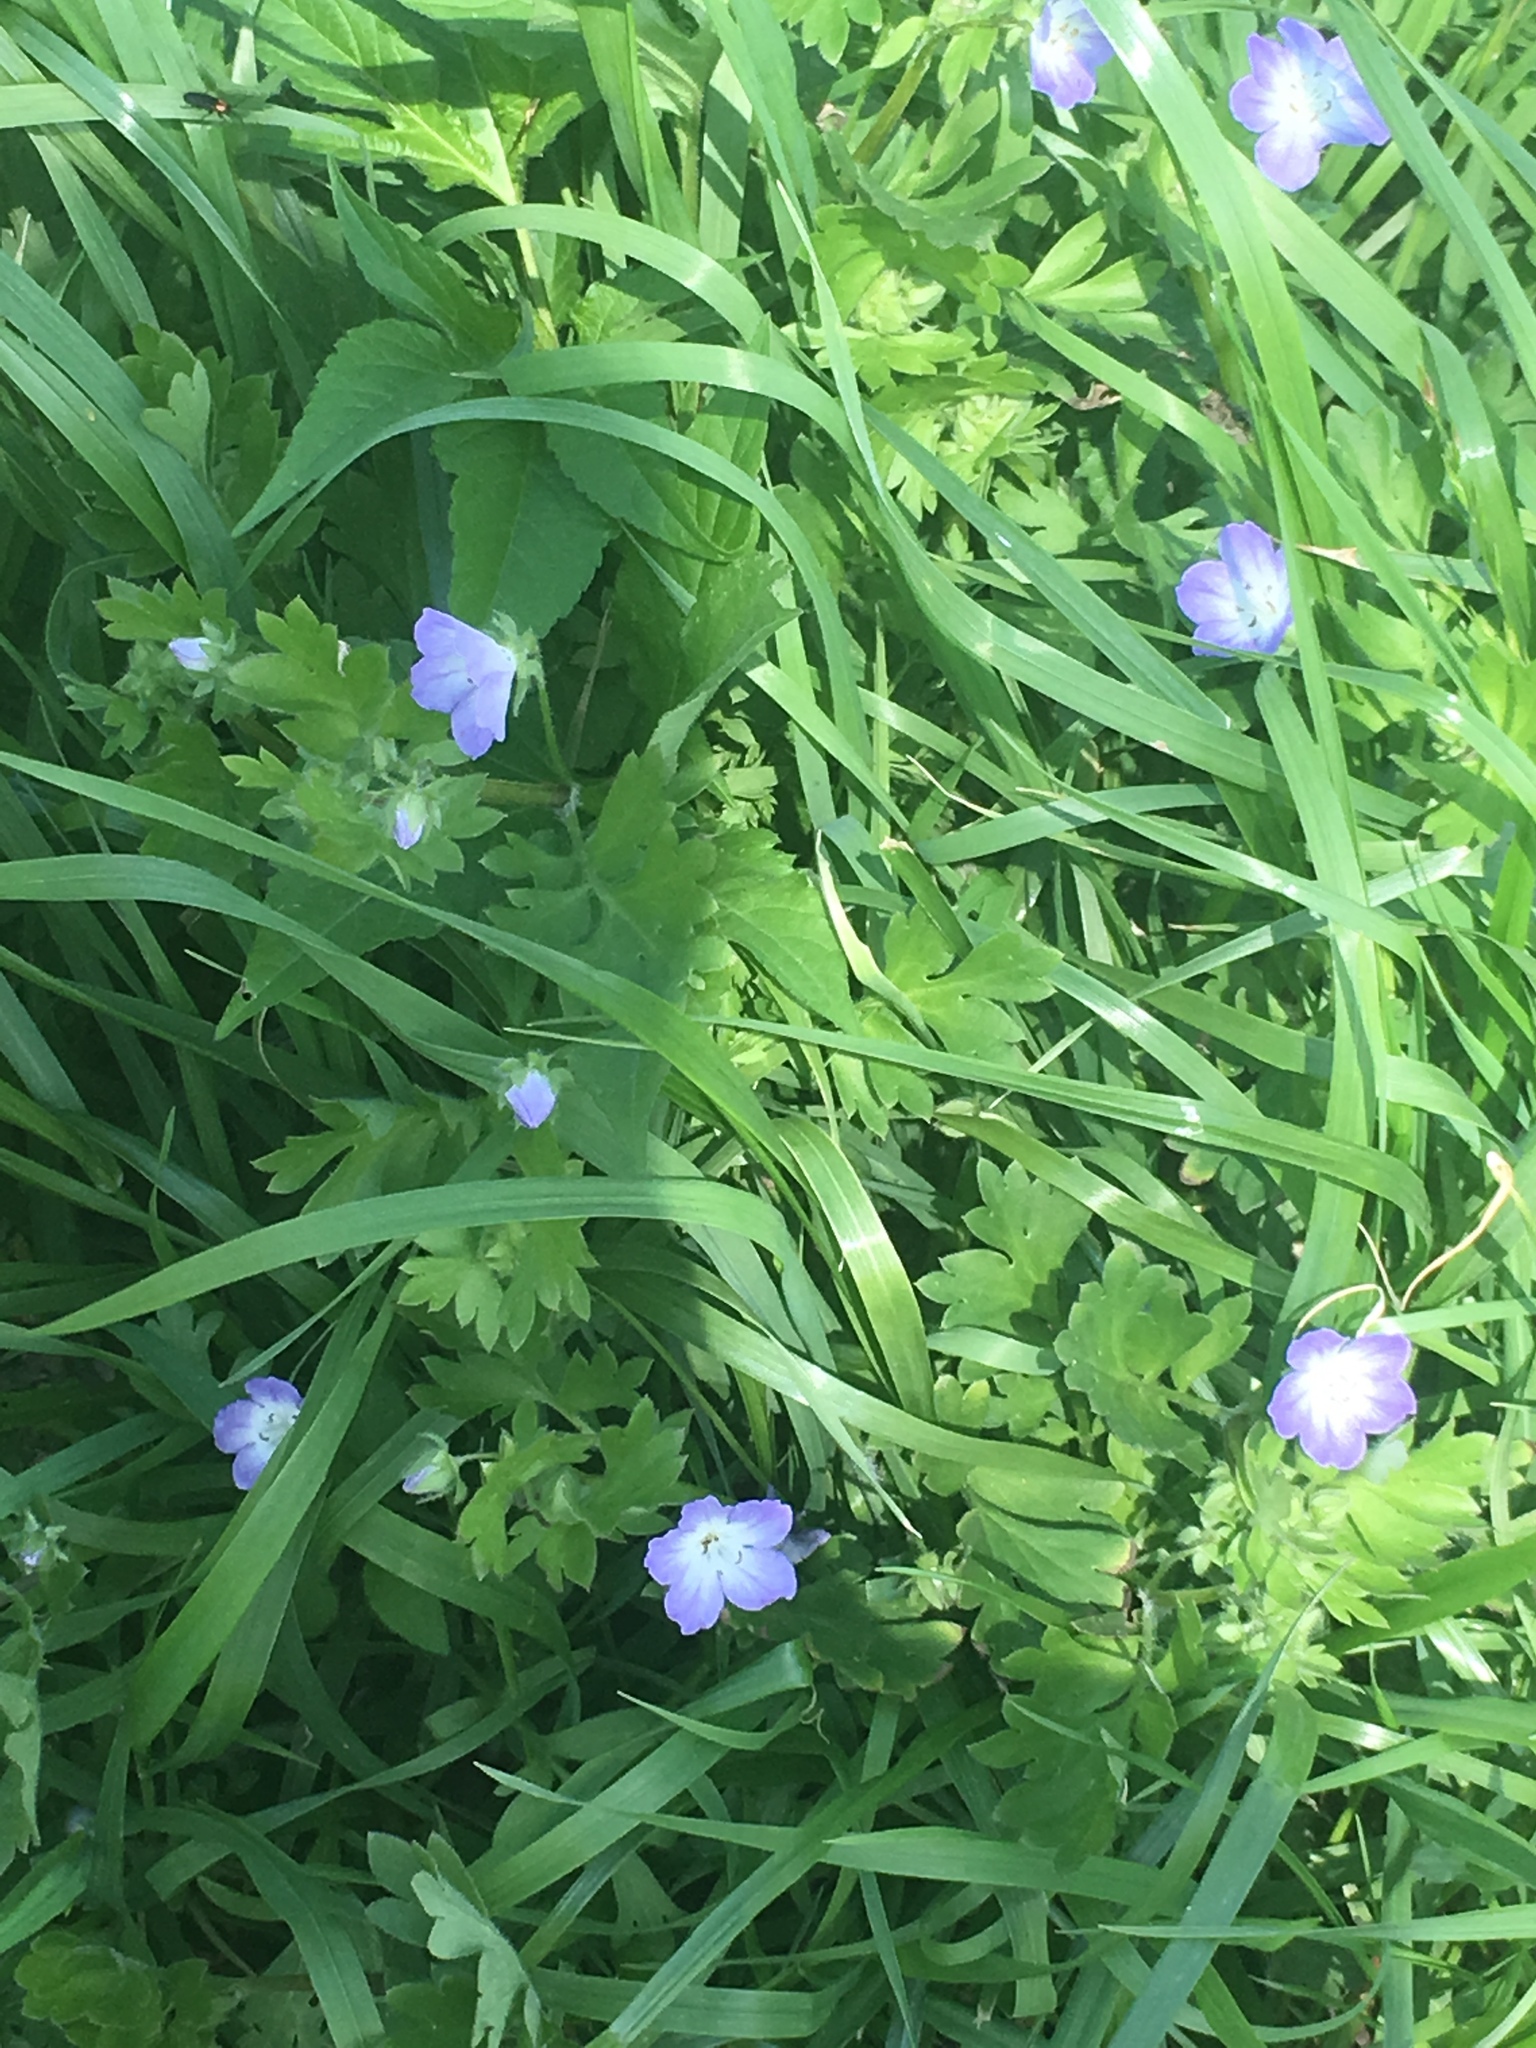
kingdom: Plantae
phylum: Tracheophyta
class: Magnoliopsida
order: Boraginales
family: Hydrophyllaceae
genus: Nemophila
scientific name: Nemophila phacelioides
